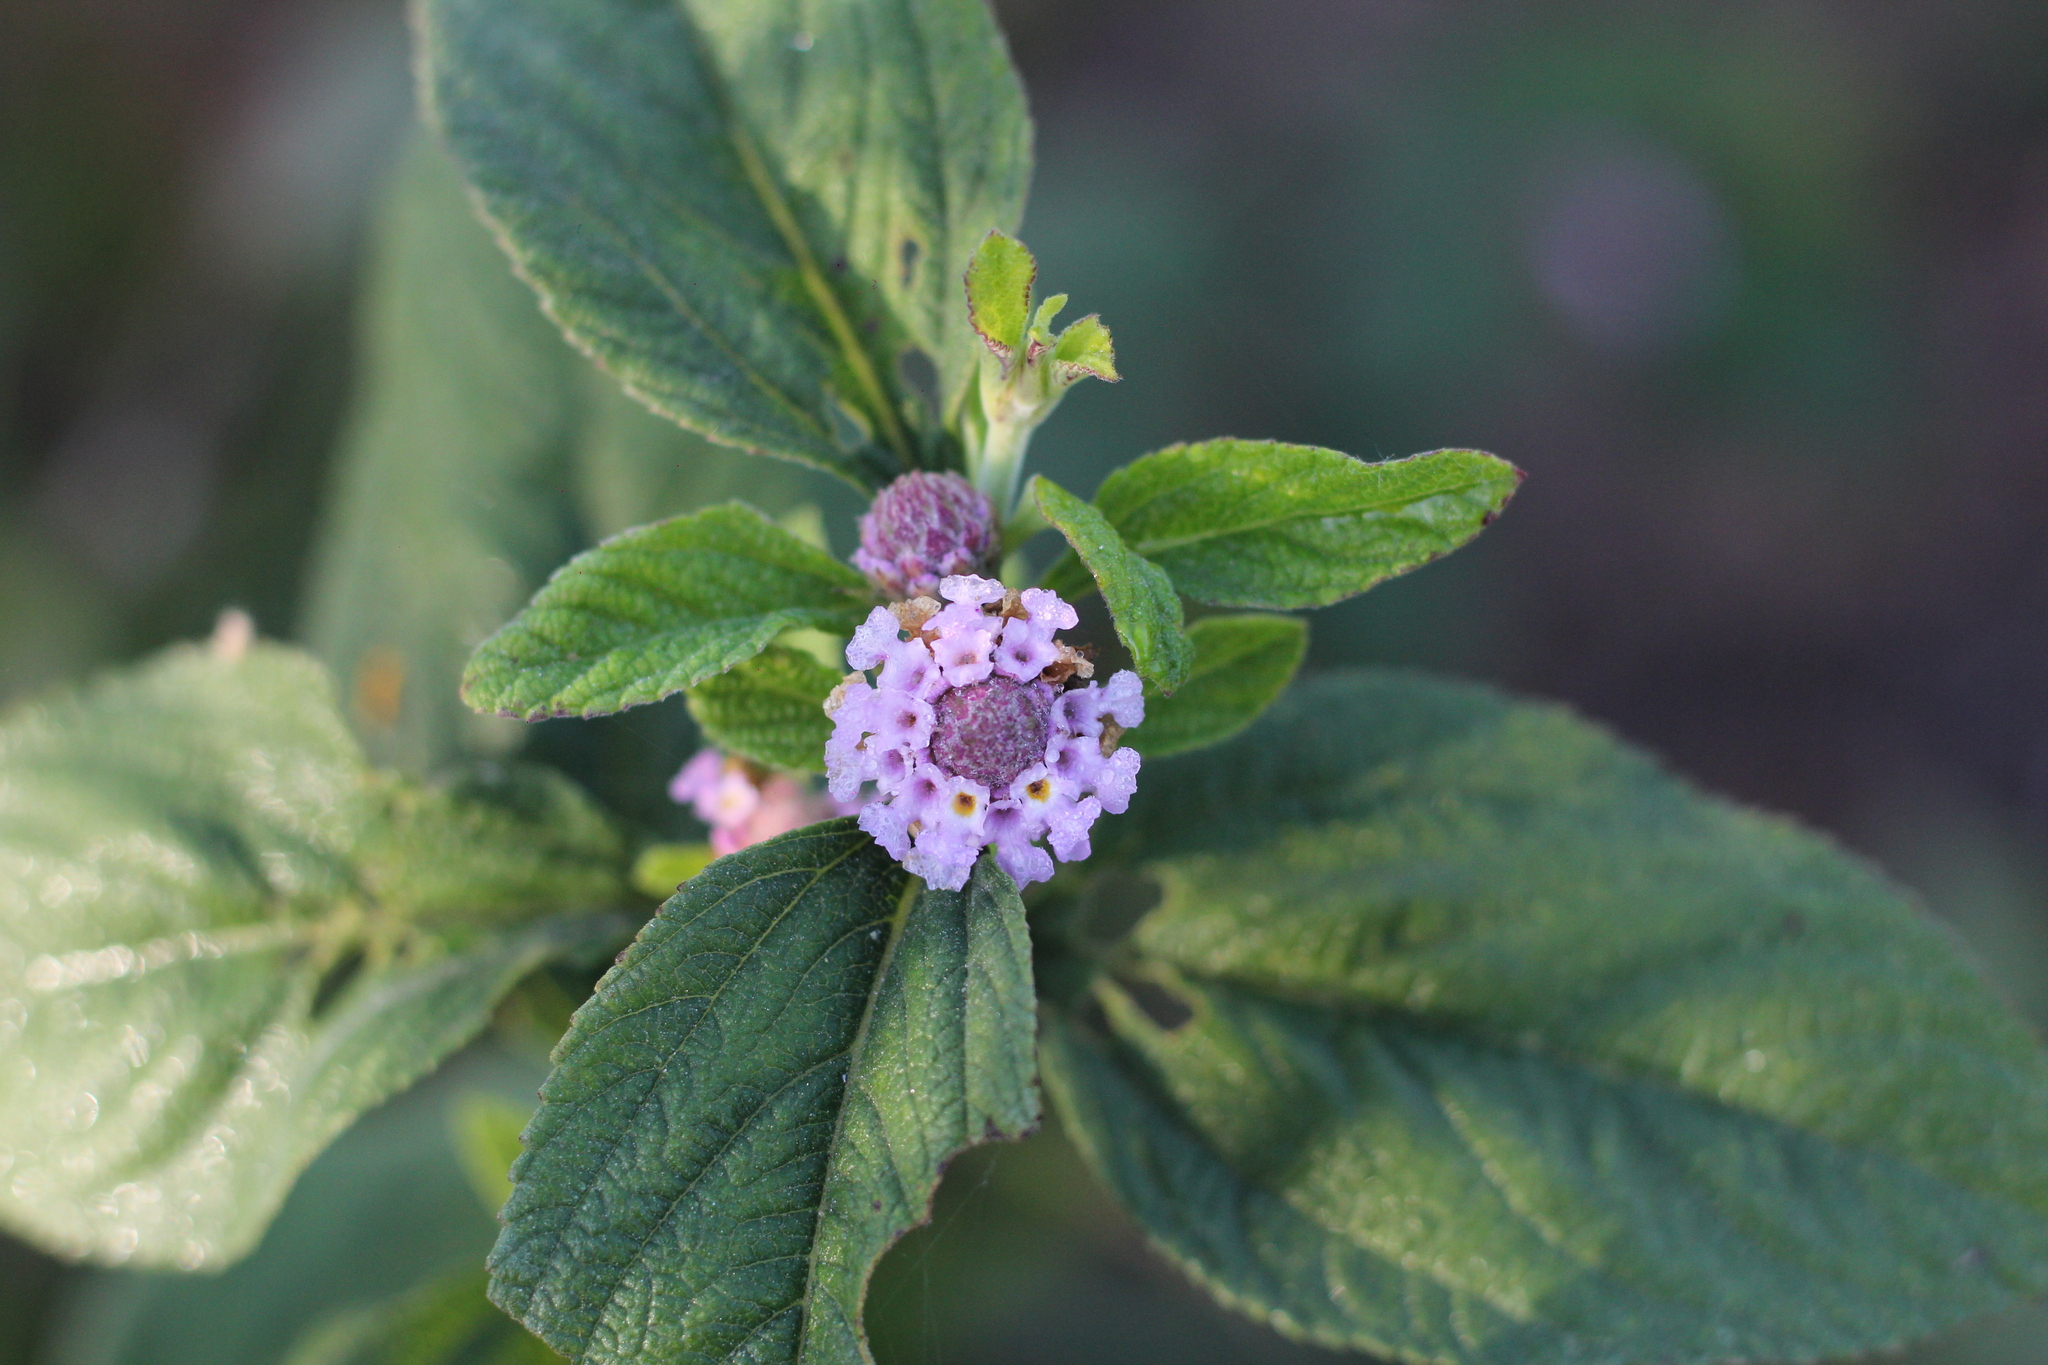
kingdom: Plantae
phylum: Tracheophyta
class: Magnoliopsida
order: Lamiales
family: Verbenaceae
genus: Lippia
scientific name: Lippia alba
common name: Bushy matgrass
